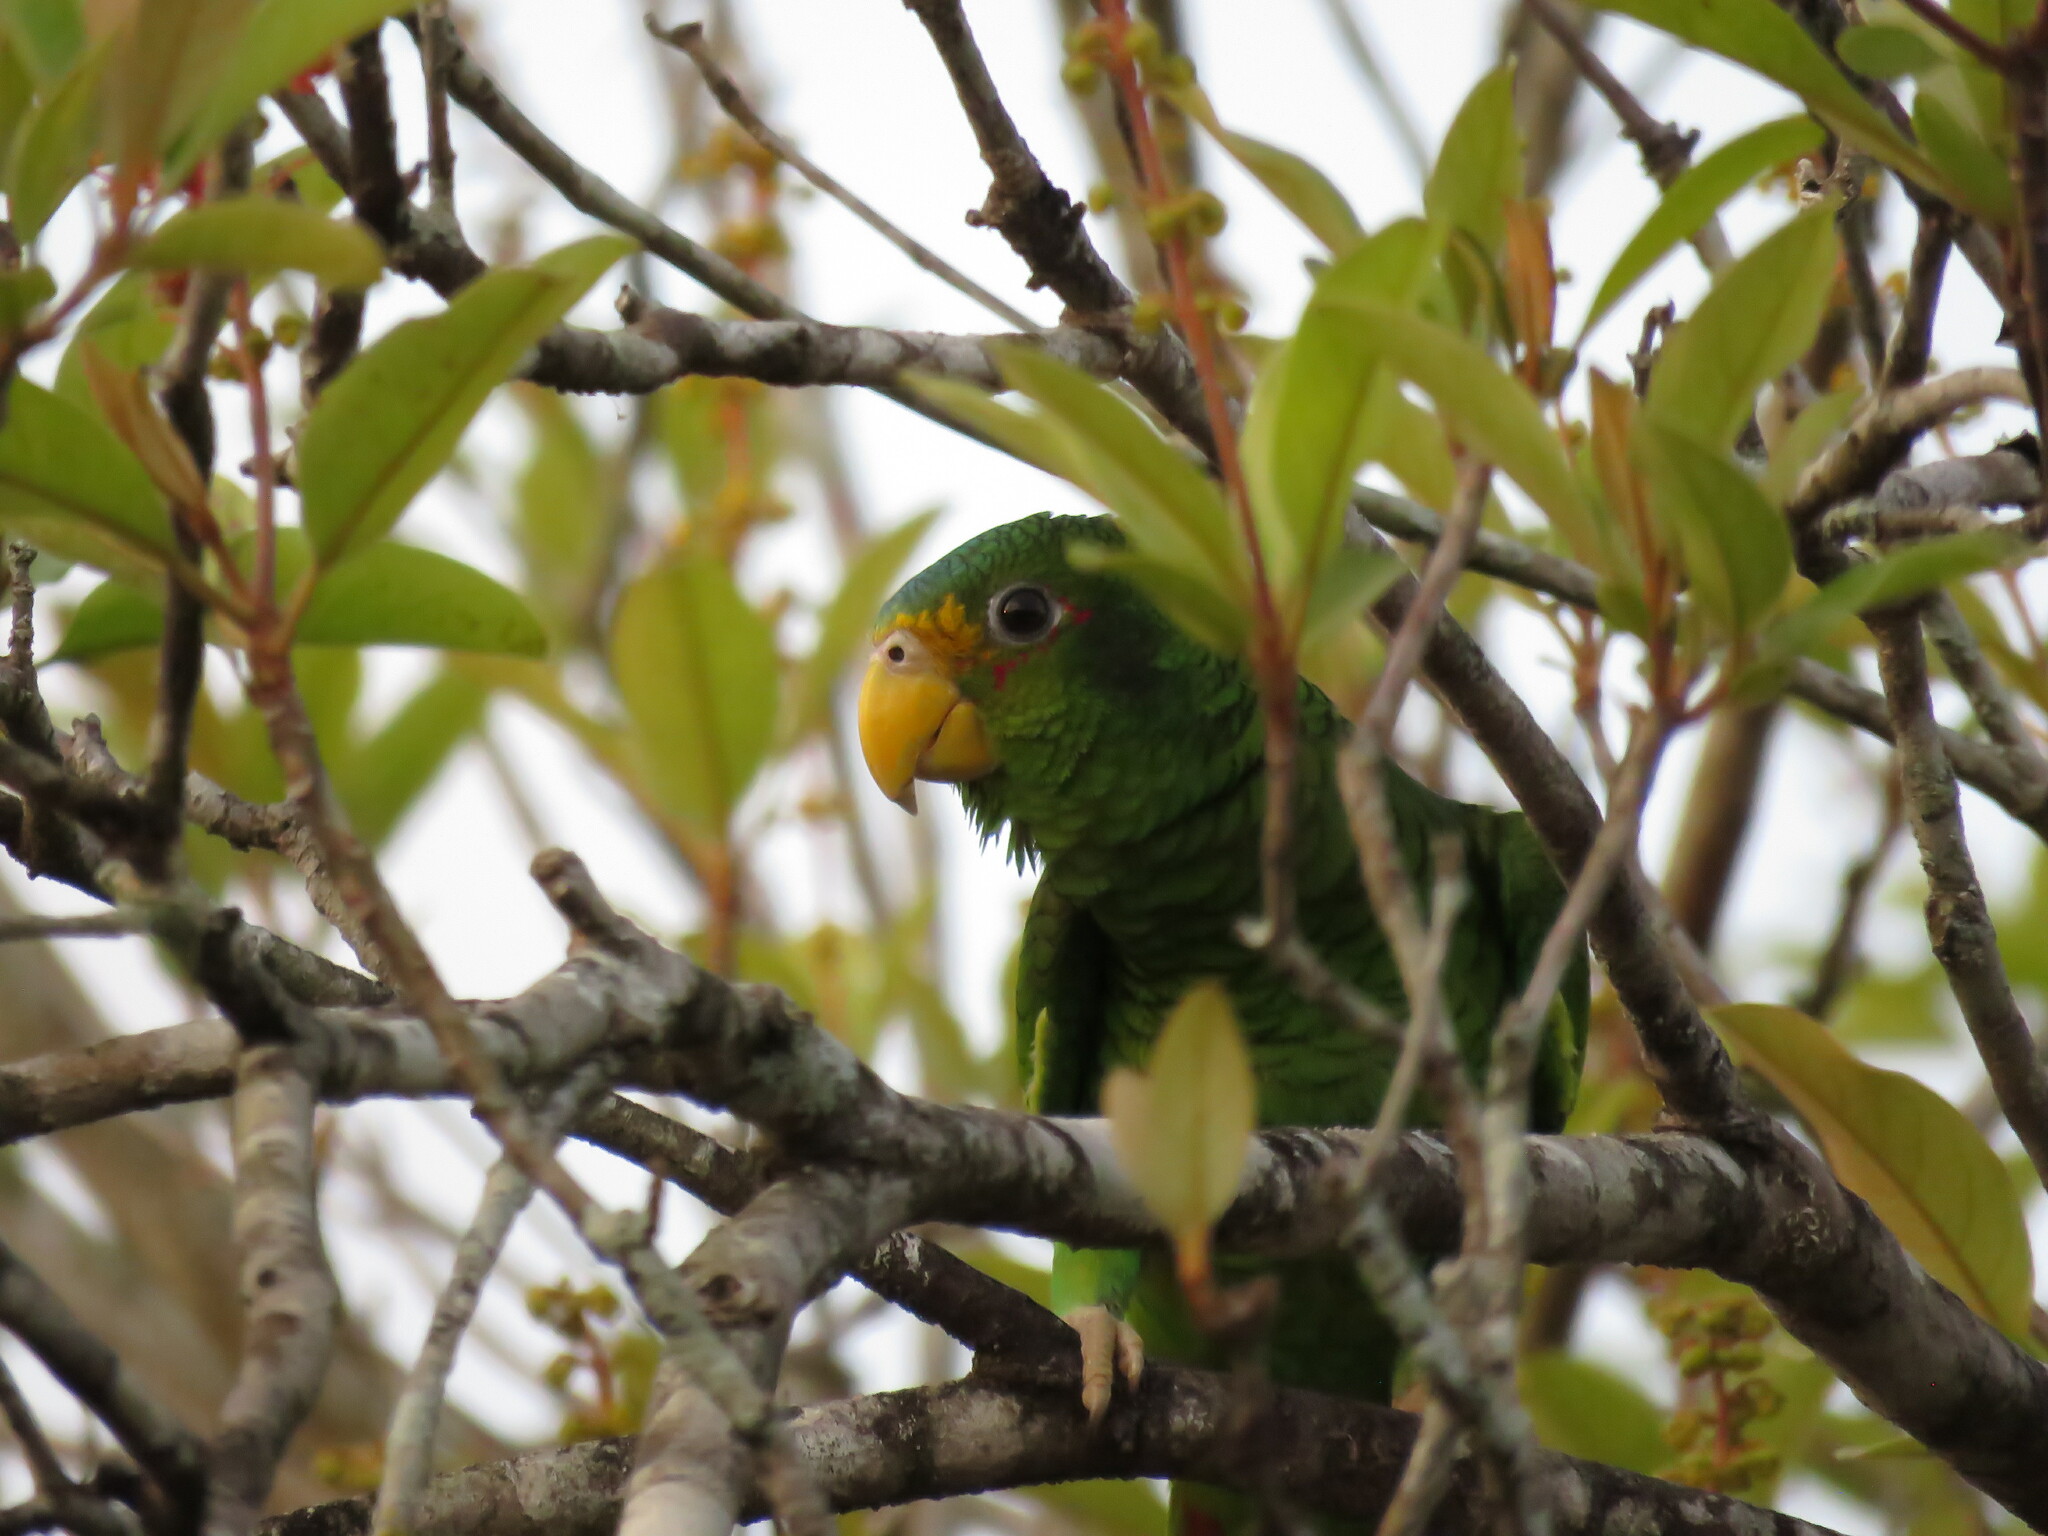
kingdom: Animalia
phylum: Chordata
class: Aves
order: Psittaciformes
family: Psittacidae
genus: Amazona
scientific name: Amazona xantholora
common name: Yucatan amazon
